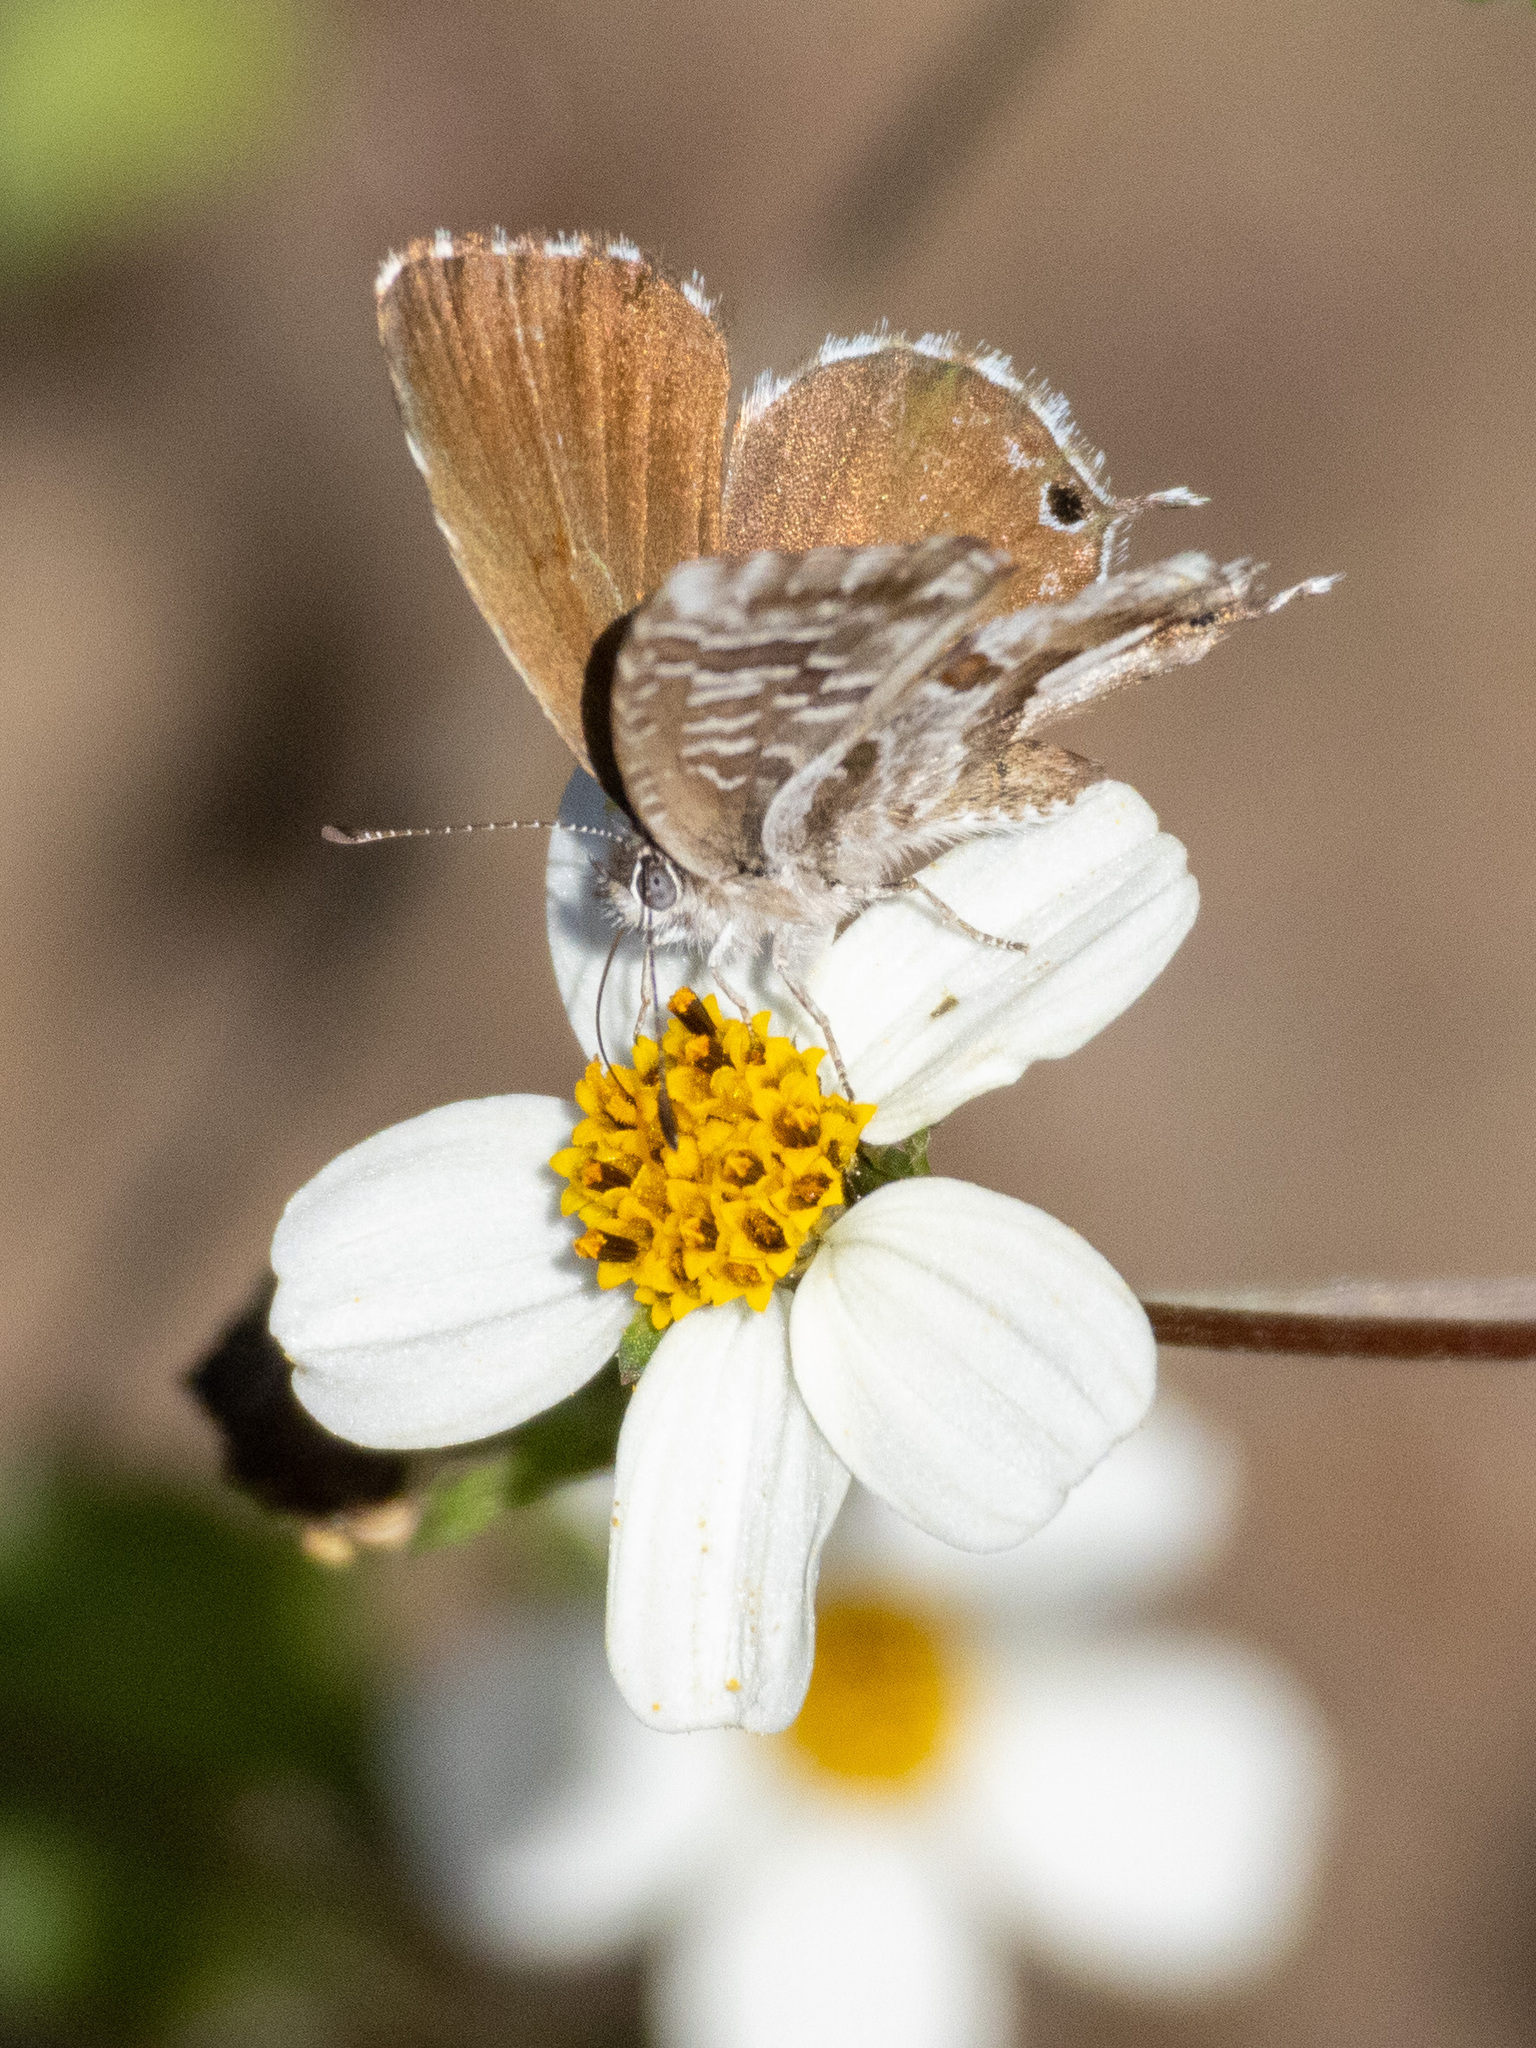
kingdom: Animalia
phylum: Arthropoda
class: Insecta
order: Lepidoptera
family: Lycaenidae
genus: Cacyreus
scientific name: Cacyreus marshalli
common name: Geranium bronze
